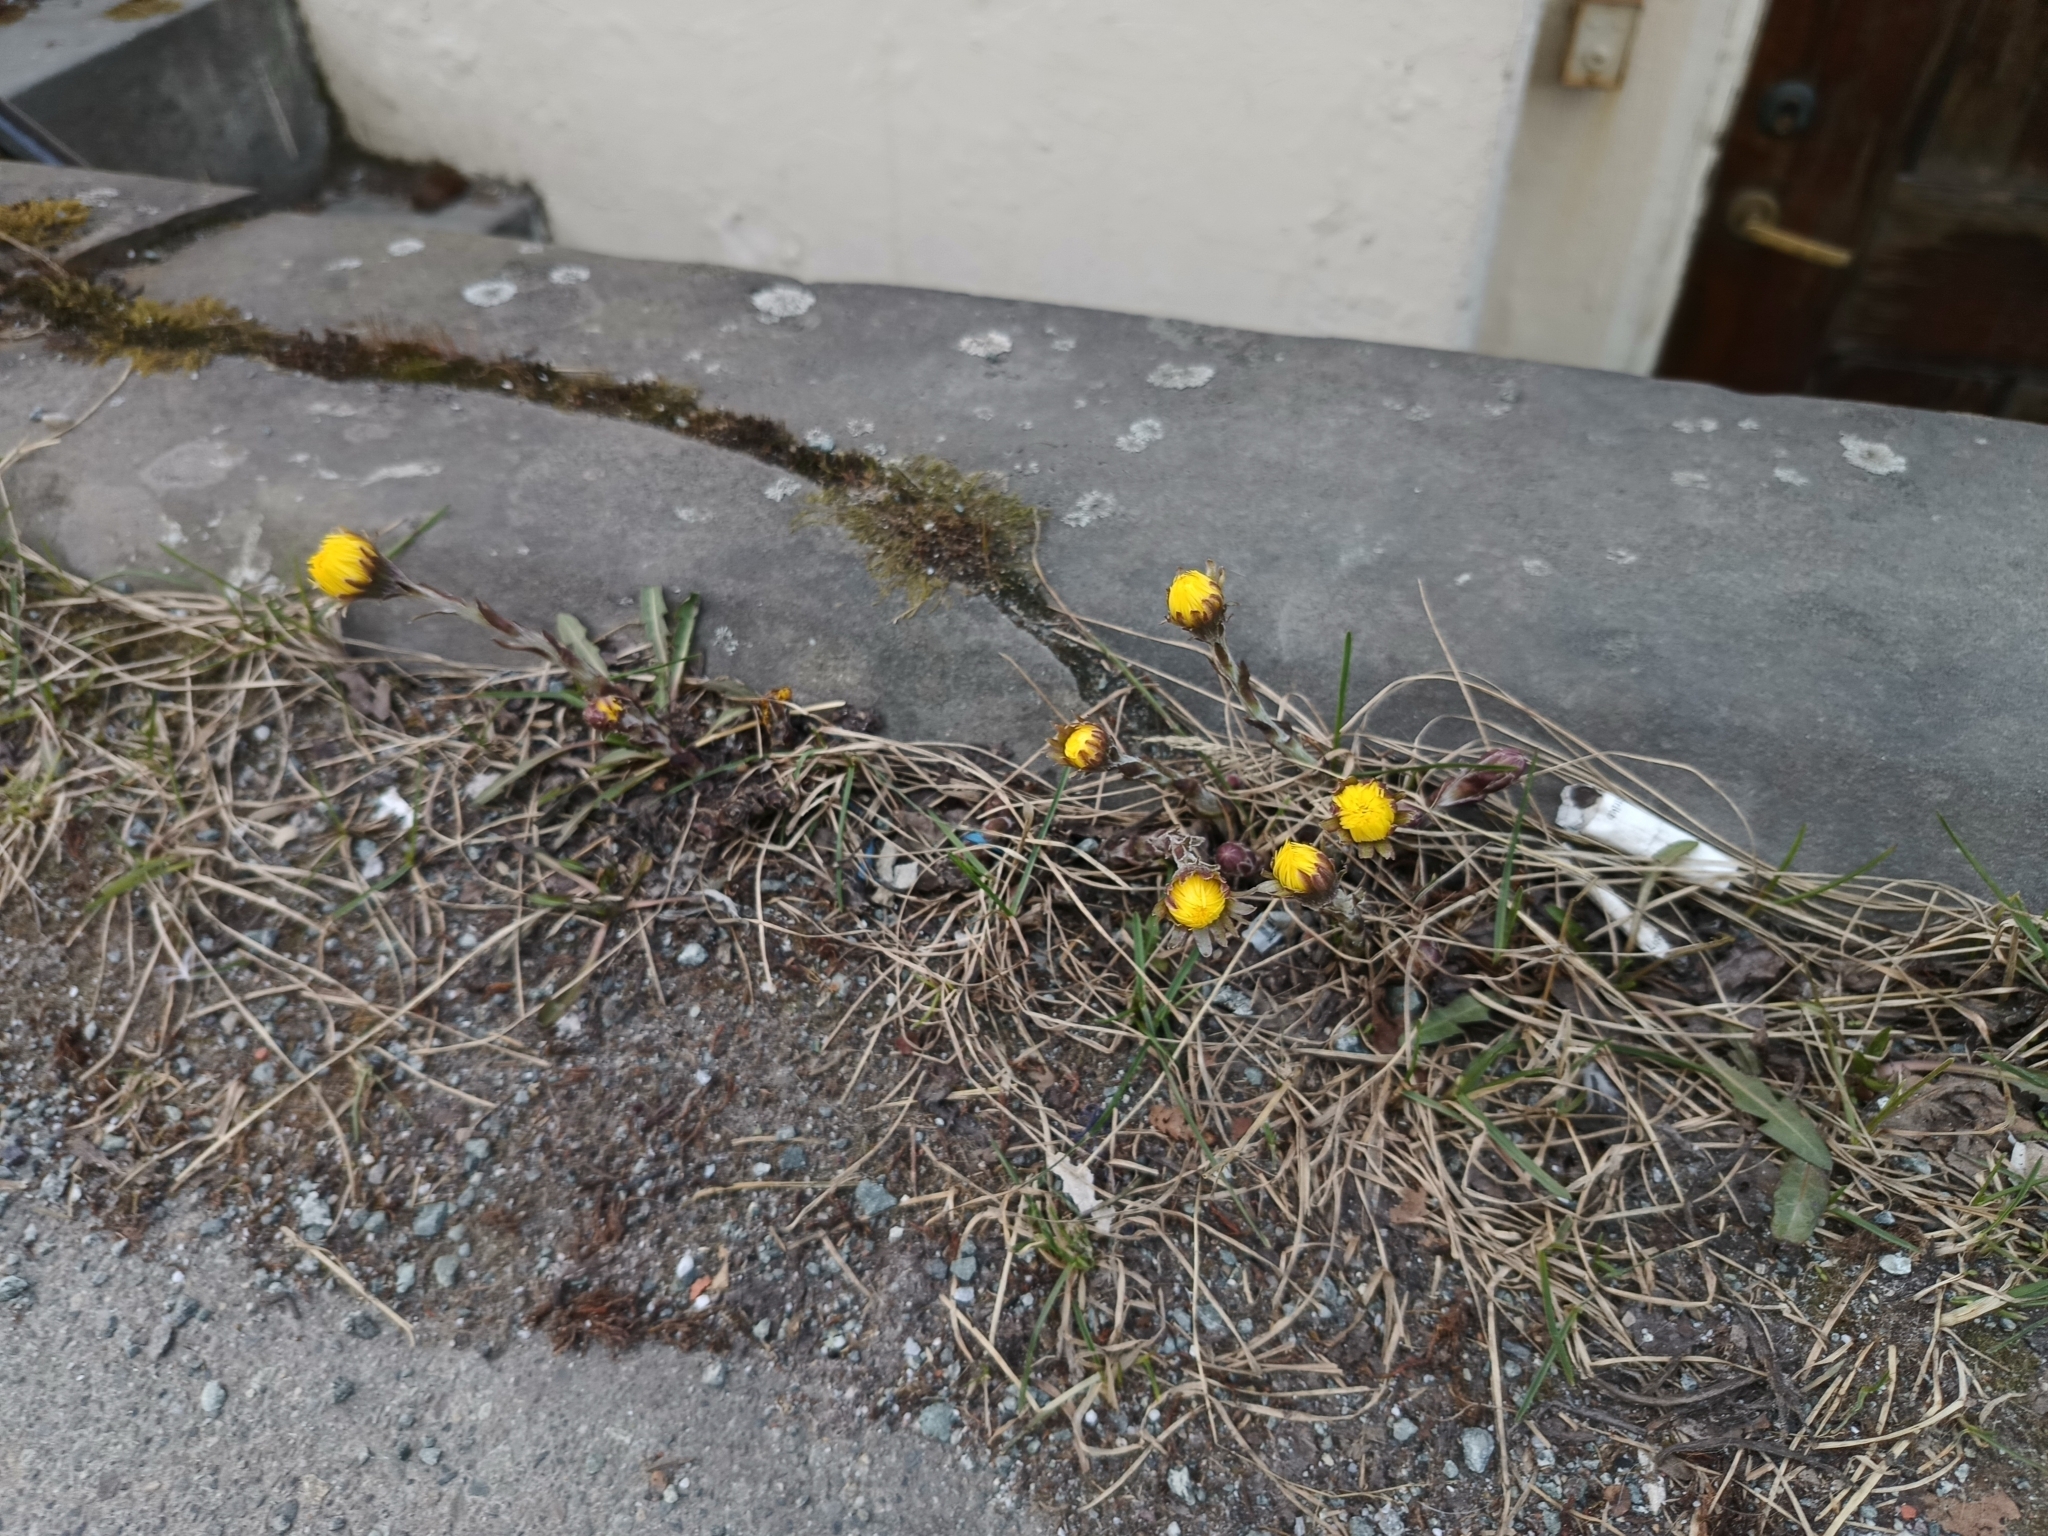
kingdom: Plantae
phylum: Tracheophyta
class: Magnoliopsida
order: Asterales
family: Asteraceae
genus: Tussilago
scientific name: Tussilago farfara
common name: Coltsfoot
